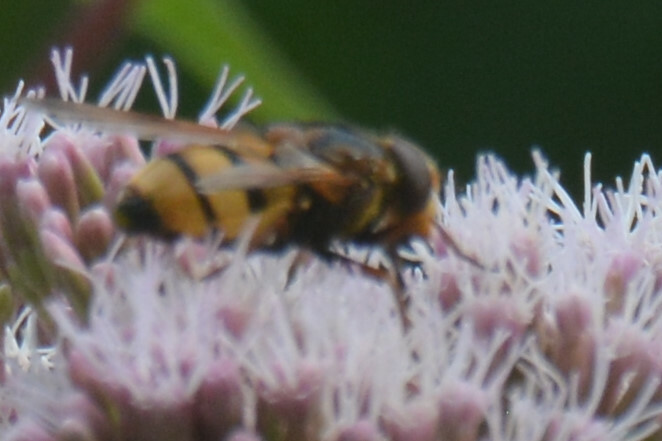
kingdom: Animalia
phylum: Arthropoda
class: Insecta
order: Diptera
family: Syrphidae
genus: Volucella
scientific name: Volucella inanis
